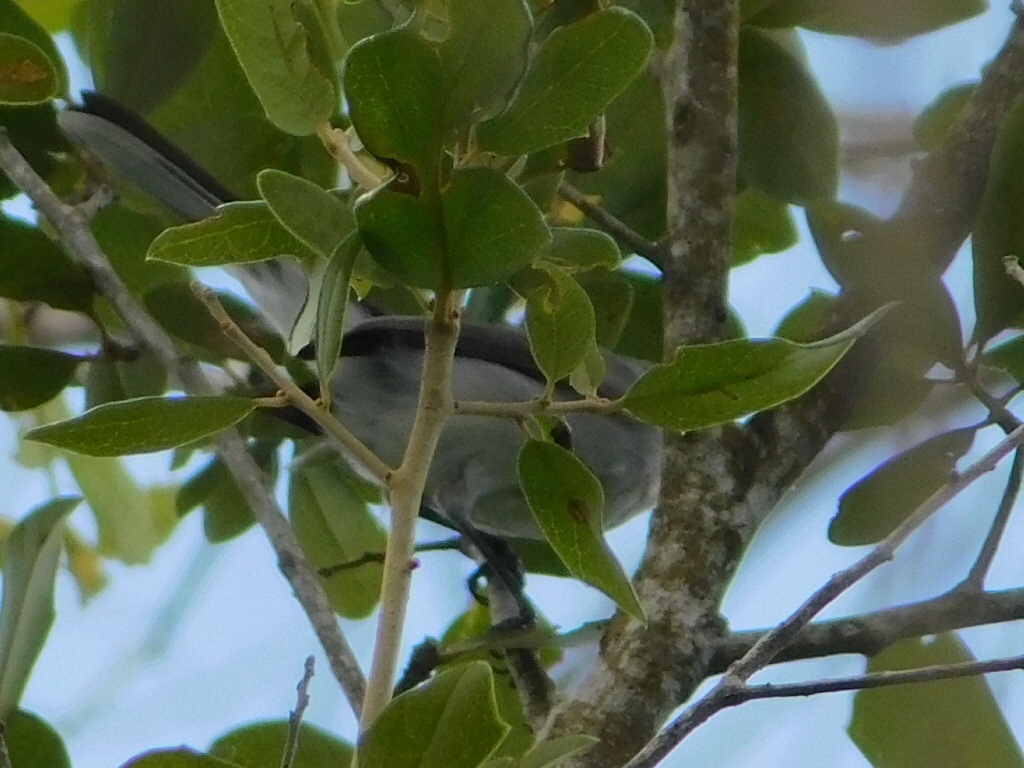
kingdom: Animalia
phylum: Chordata
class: Aves
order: Passeriformes
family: Polioptilidae
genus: Polioptila
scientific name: Polioptila caerulea
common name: Blue-gray gnatcatcher
